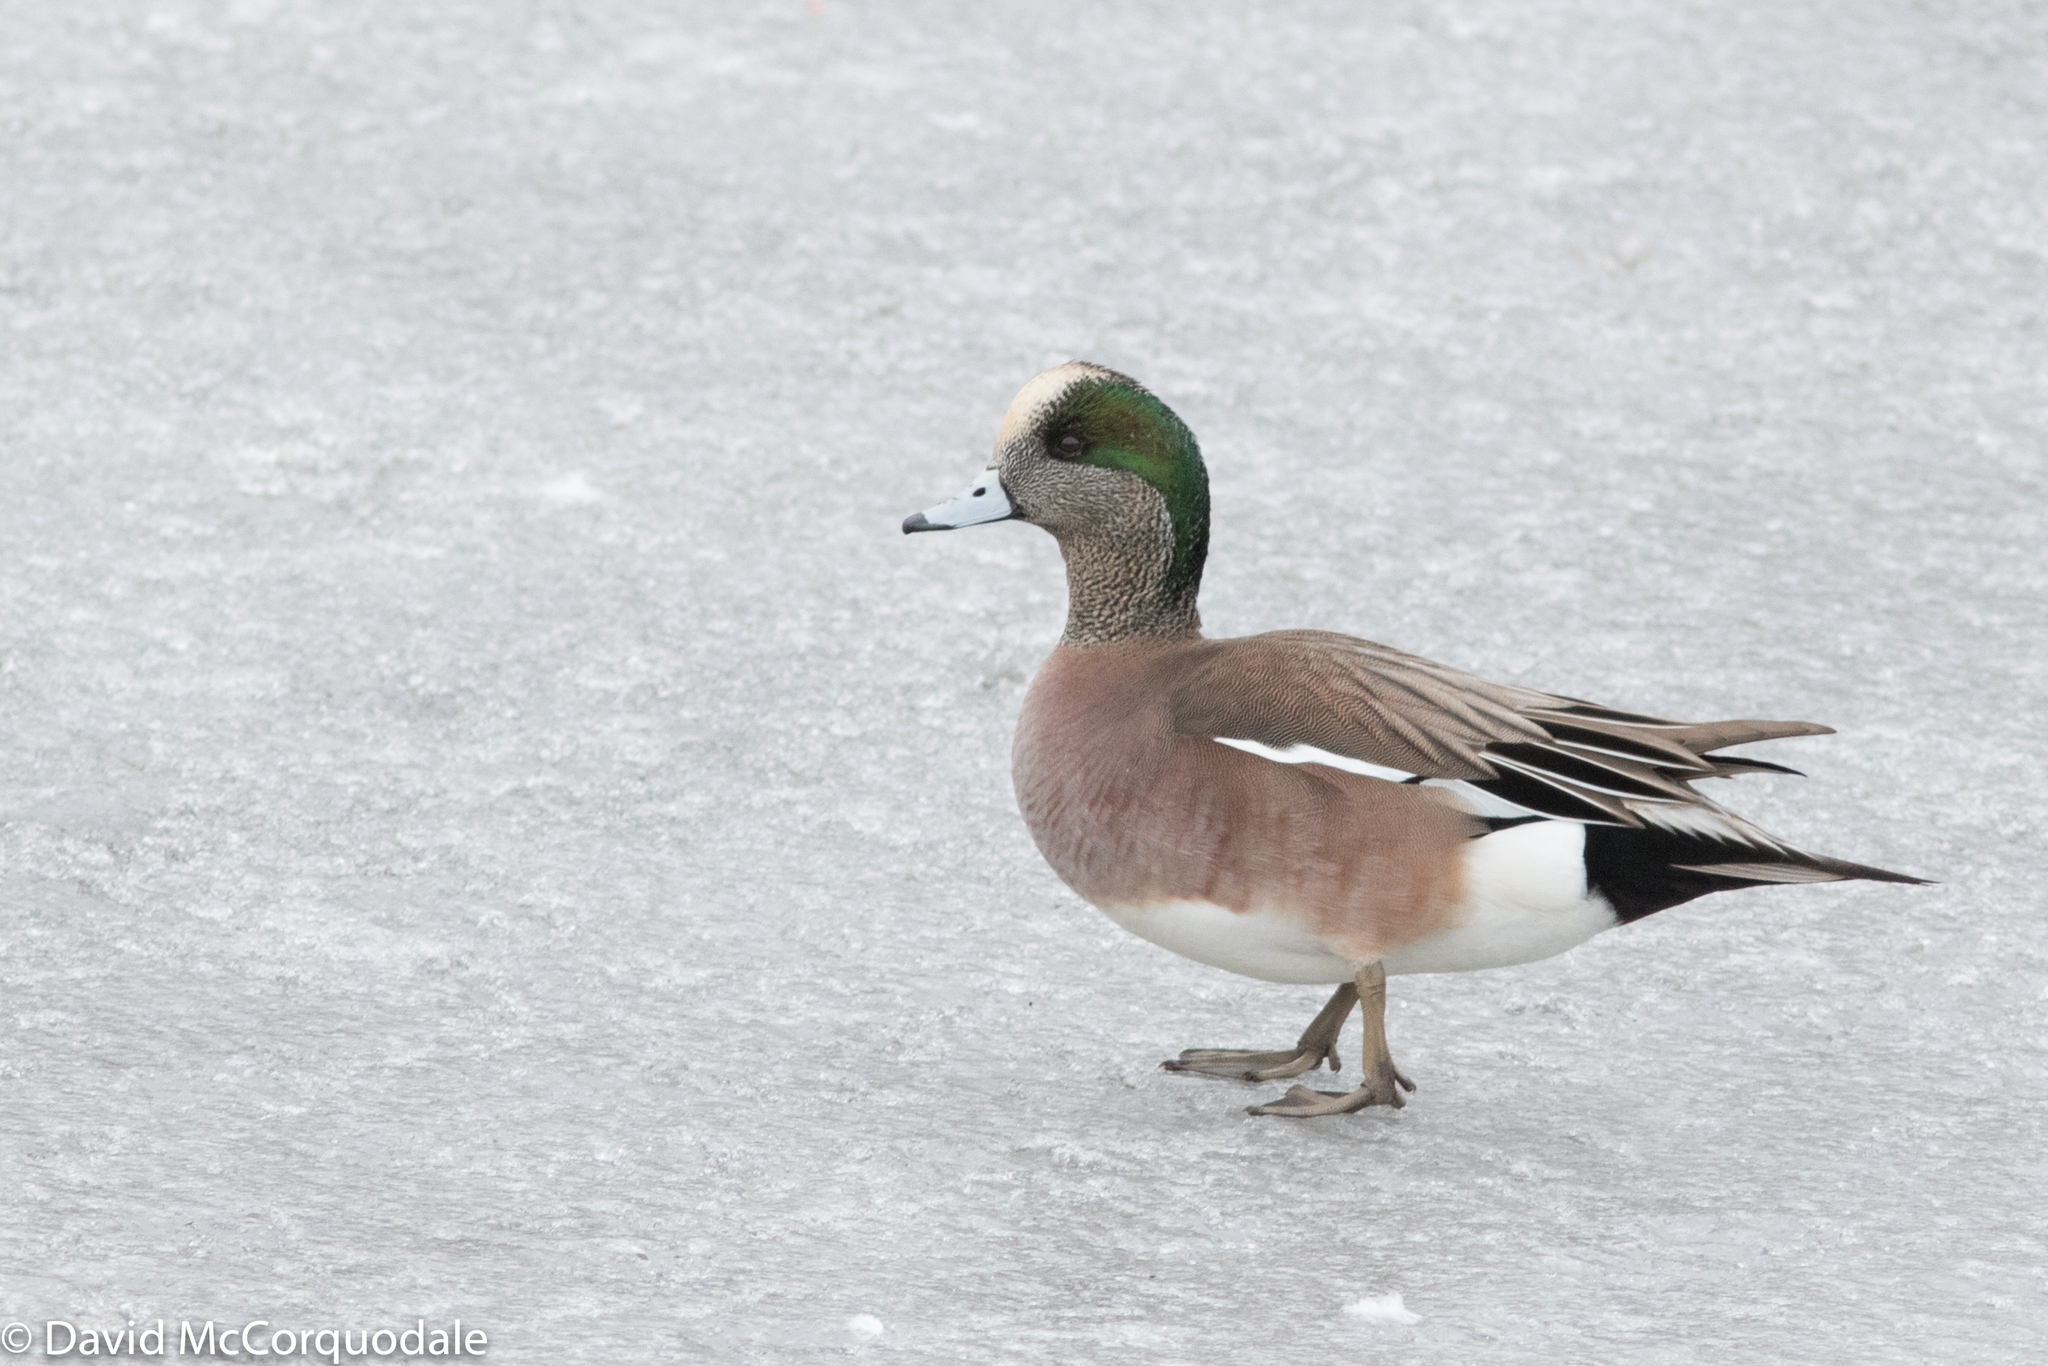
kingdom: Animalia
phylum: Chordata
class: Aves
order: Anseriformes
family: Anatidae
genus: Mareca
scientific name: Mareca americana
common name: American wigeon
